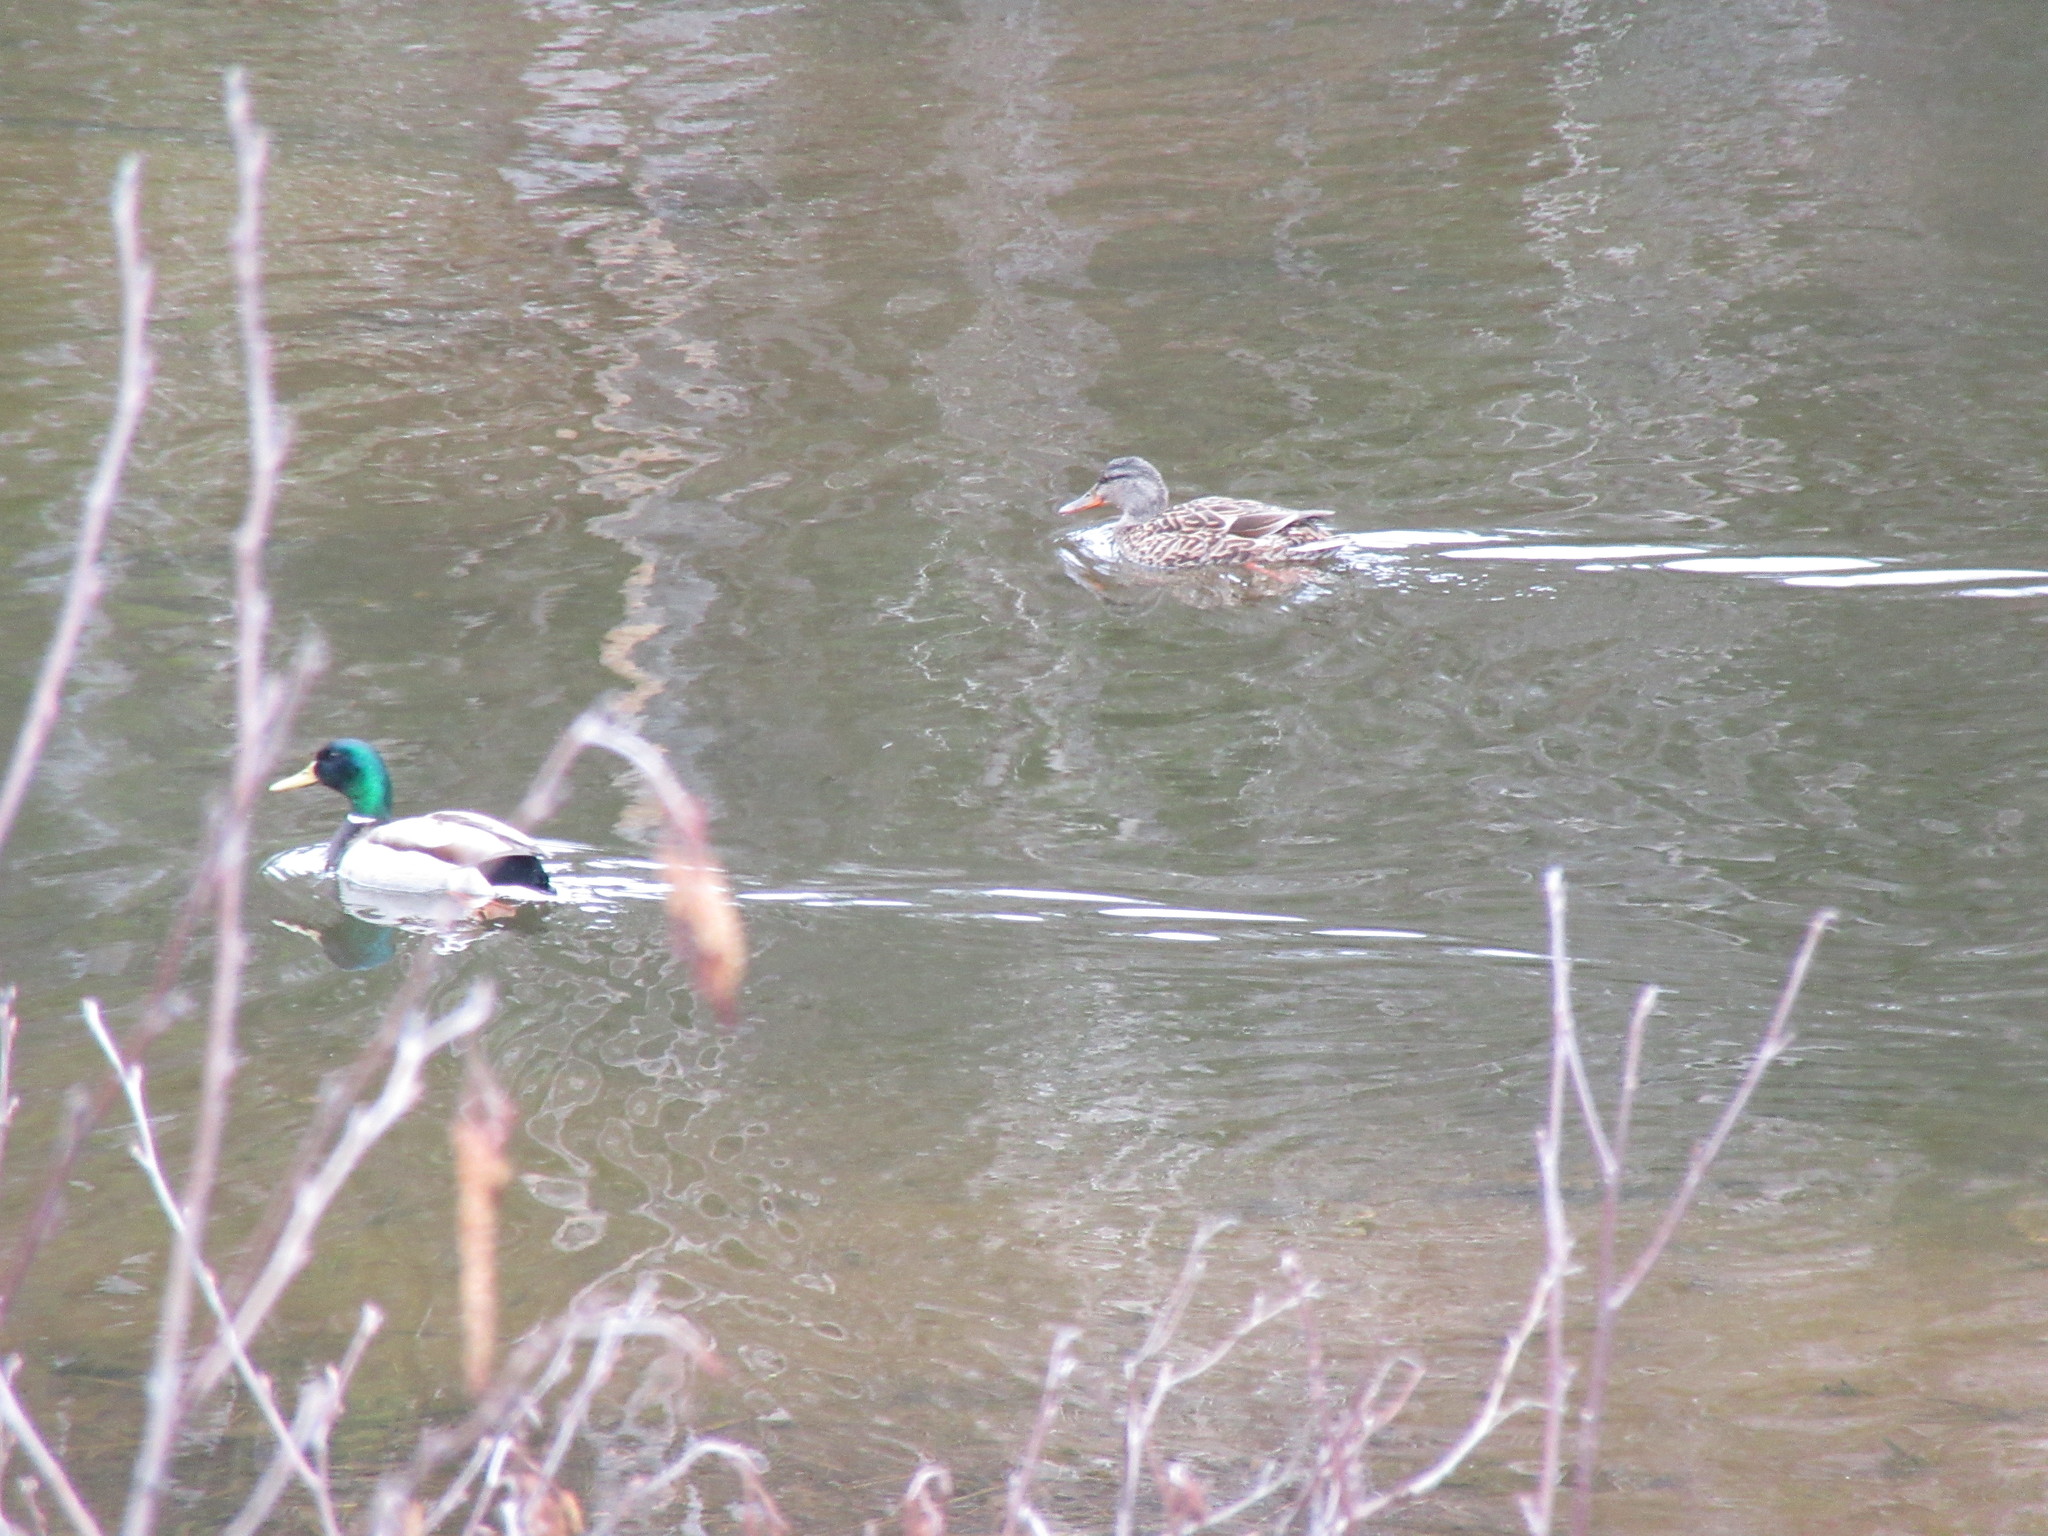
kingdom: Animalia
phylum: Chordata
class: Aves
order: Anseriformes
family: Anatidae
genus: Anas
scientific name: Anas platyrhynchos
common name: Mallard
